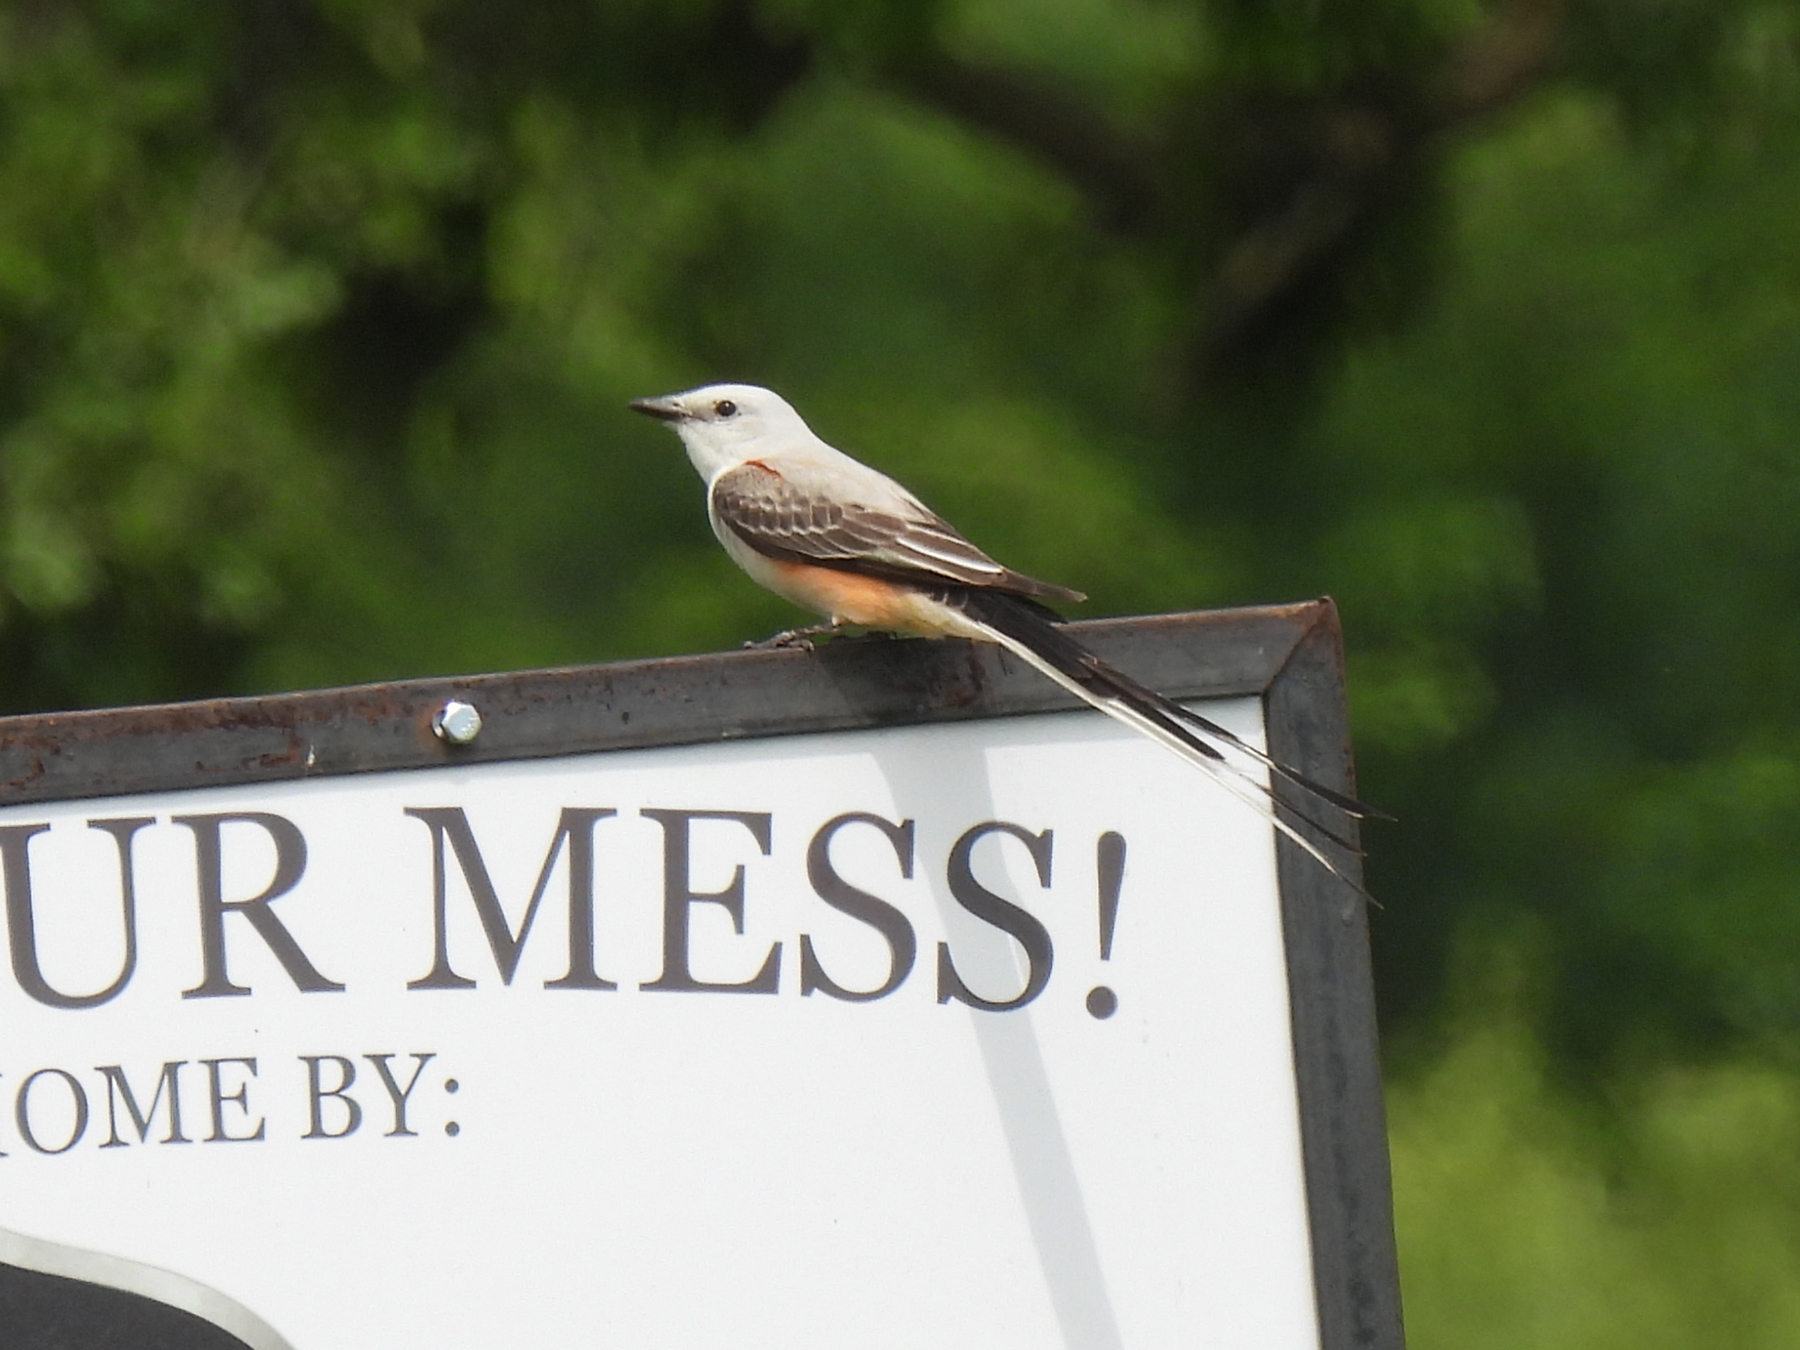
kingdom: Animalia
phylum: Chordata
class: Aves
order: Passeriformes
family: Tyrannidae
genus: Tyrannus
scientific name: Tyrannus forficatus
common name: Scissor-tailed flycatcher
